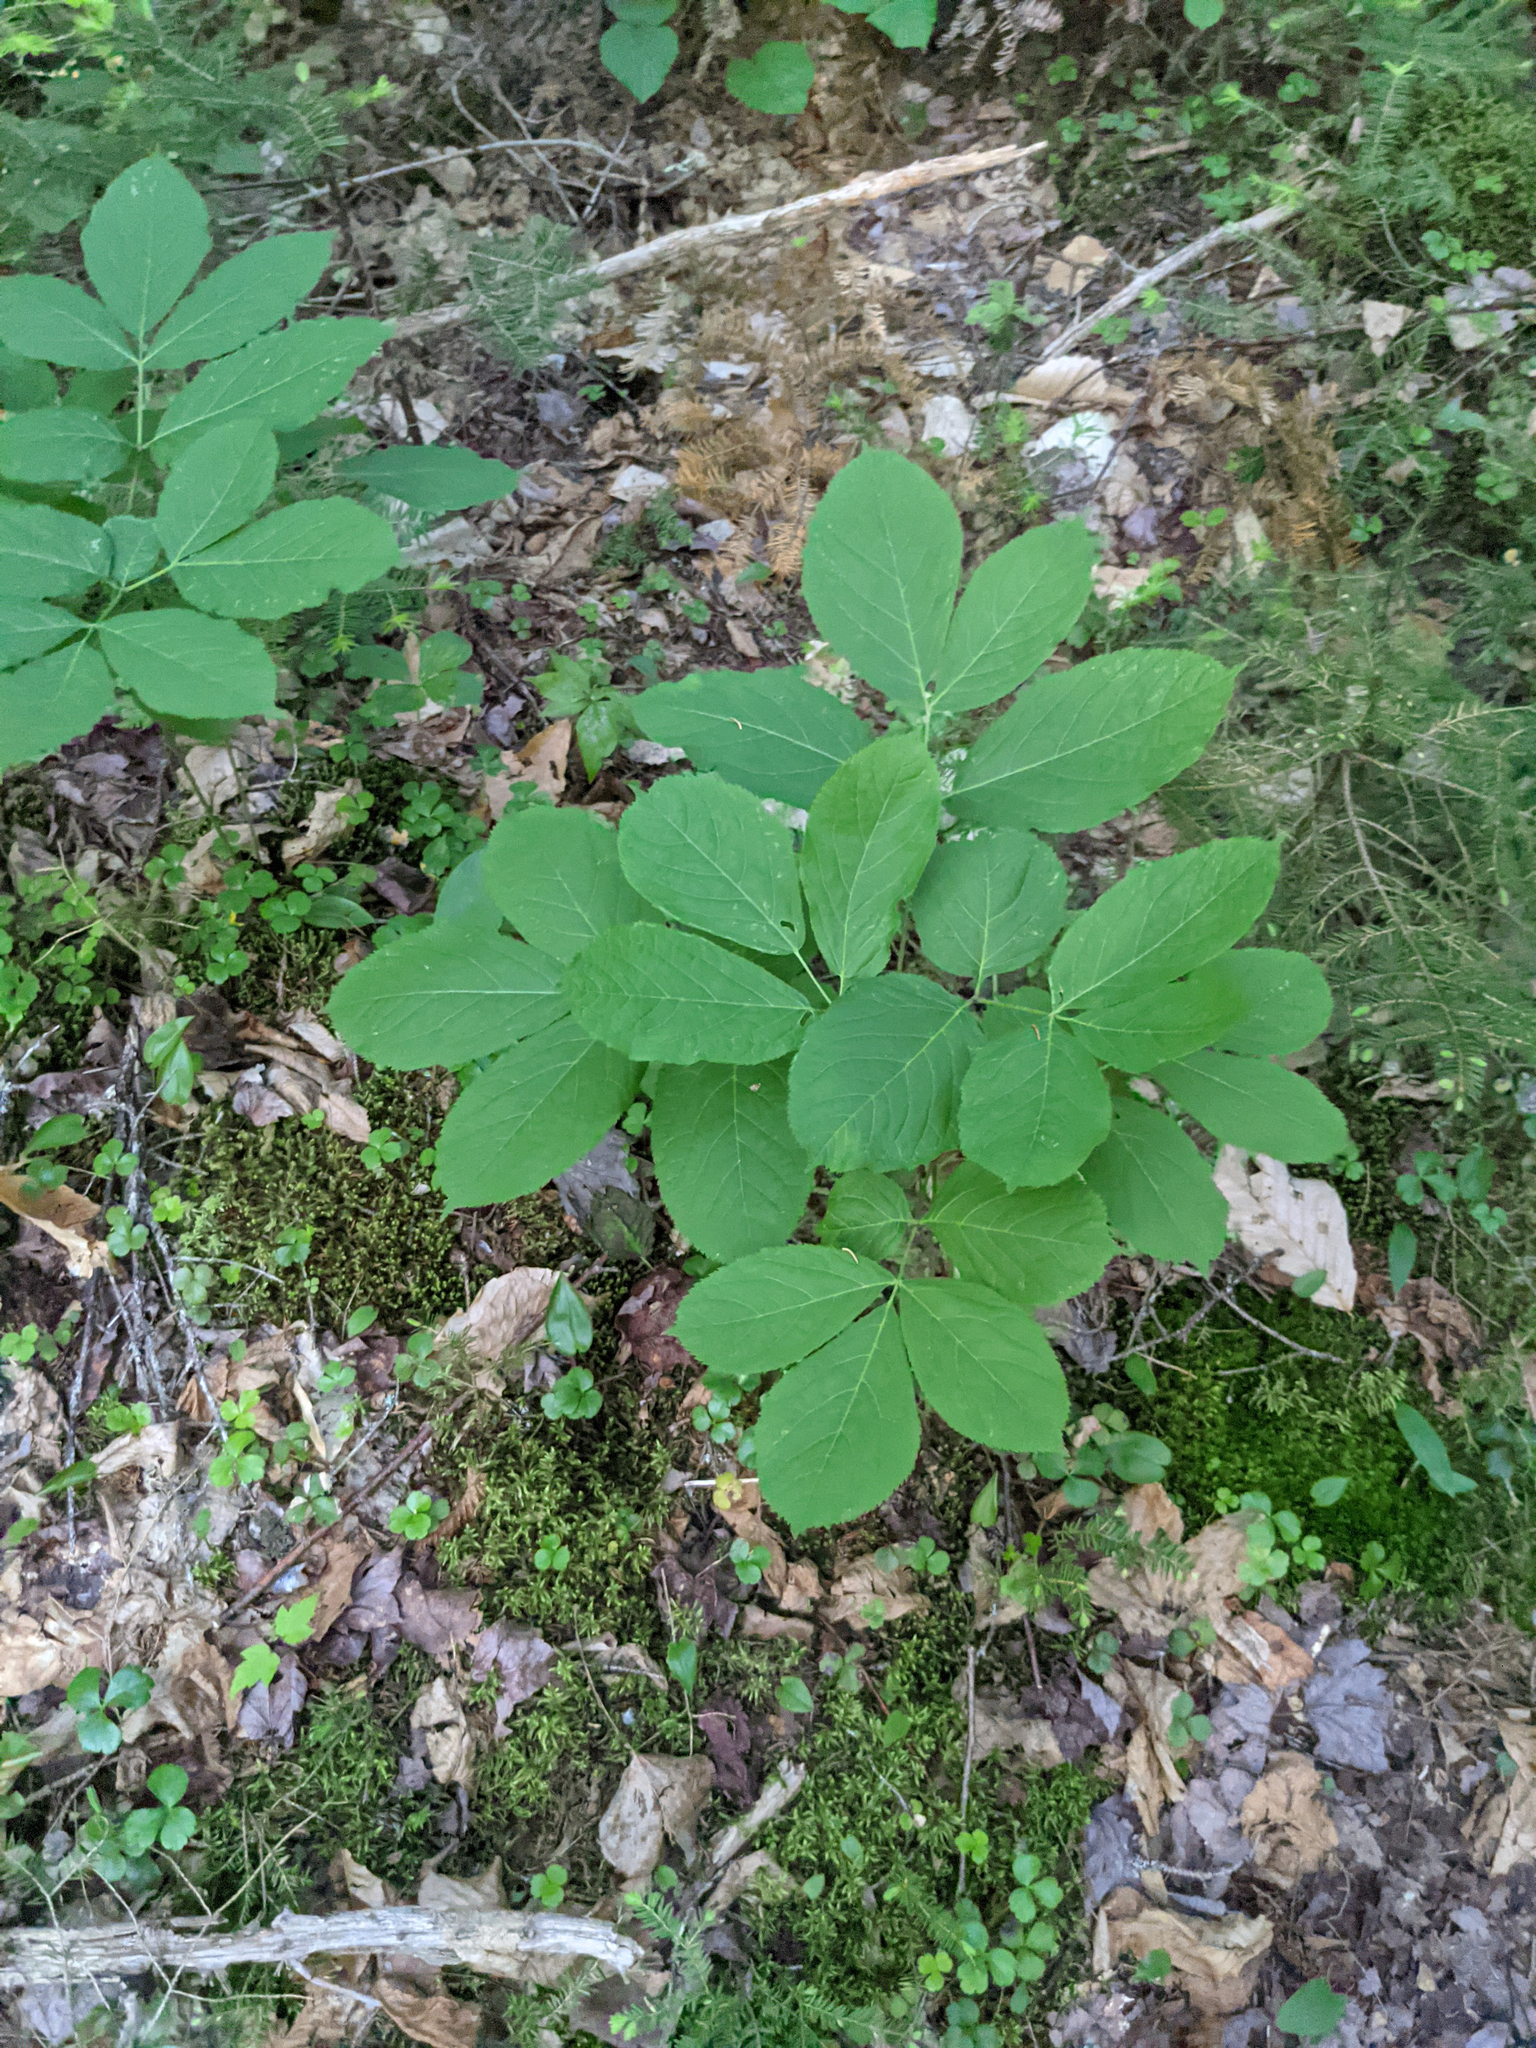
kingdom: Plantae
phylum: Tracheophyta
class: Magnoliopsida
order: Apiales
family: Araliaceae
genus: Aralia
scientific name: Aralia nudicaulis
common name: Wild sarsaparilla
